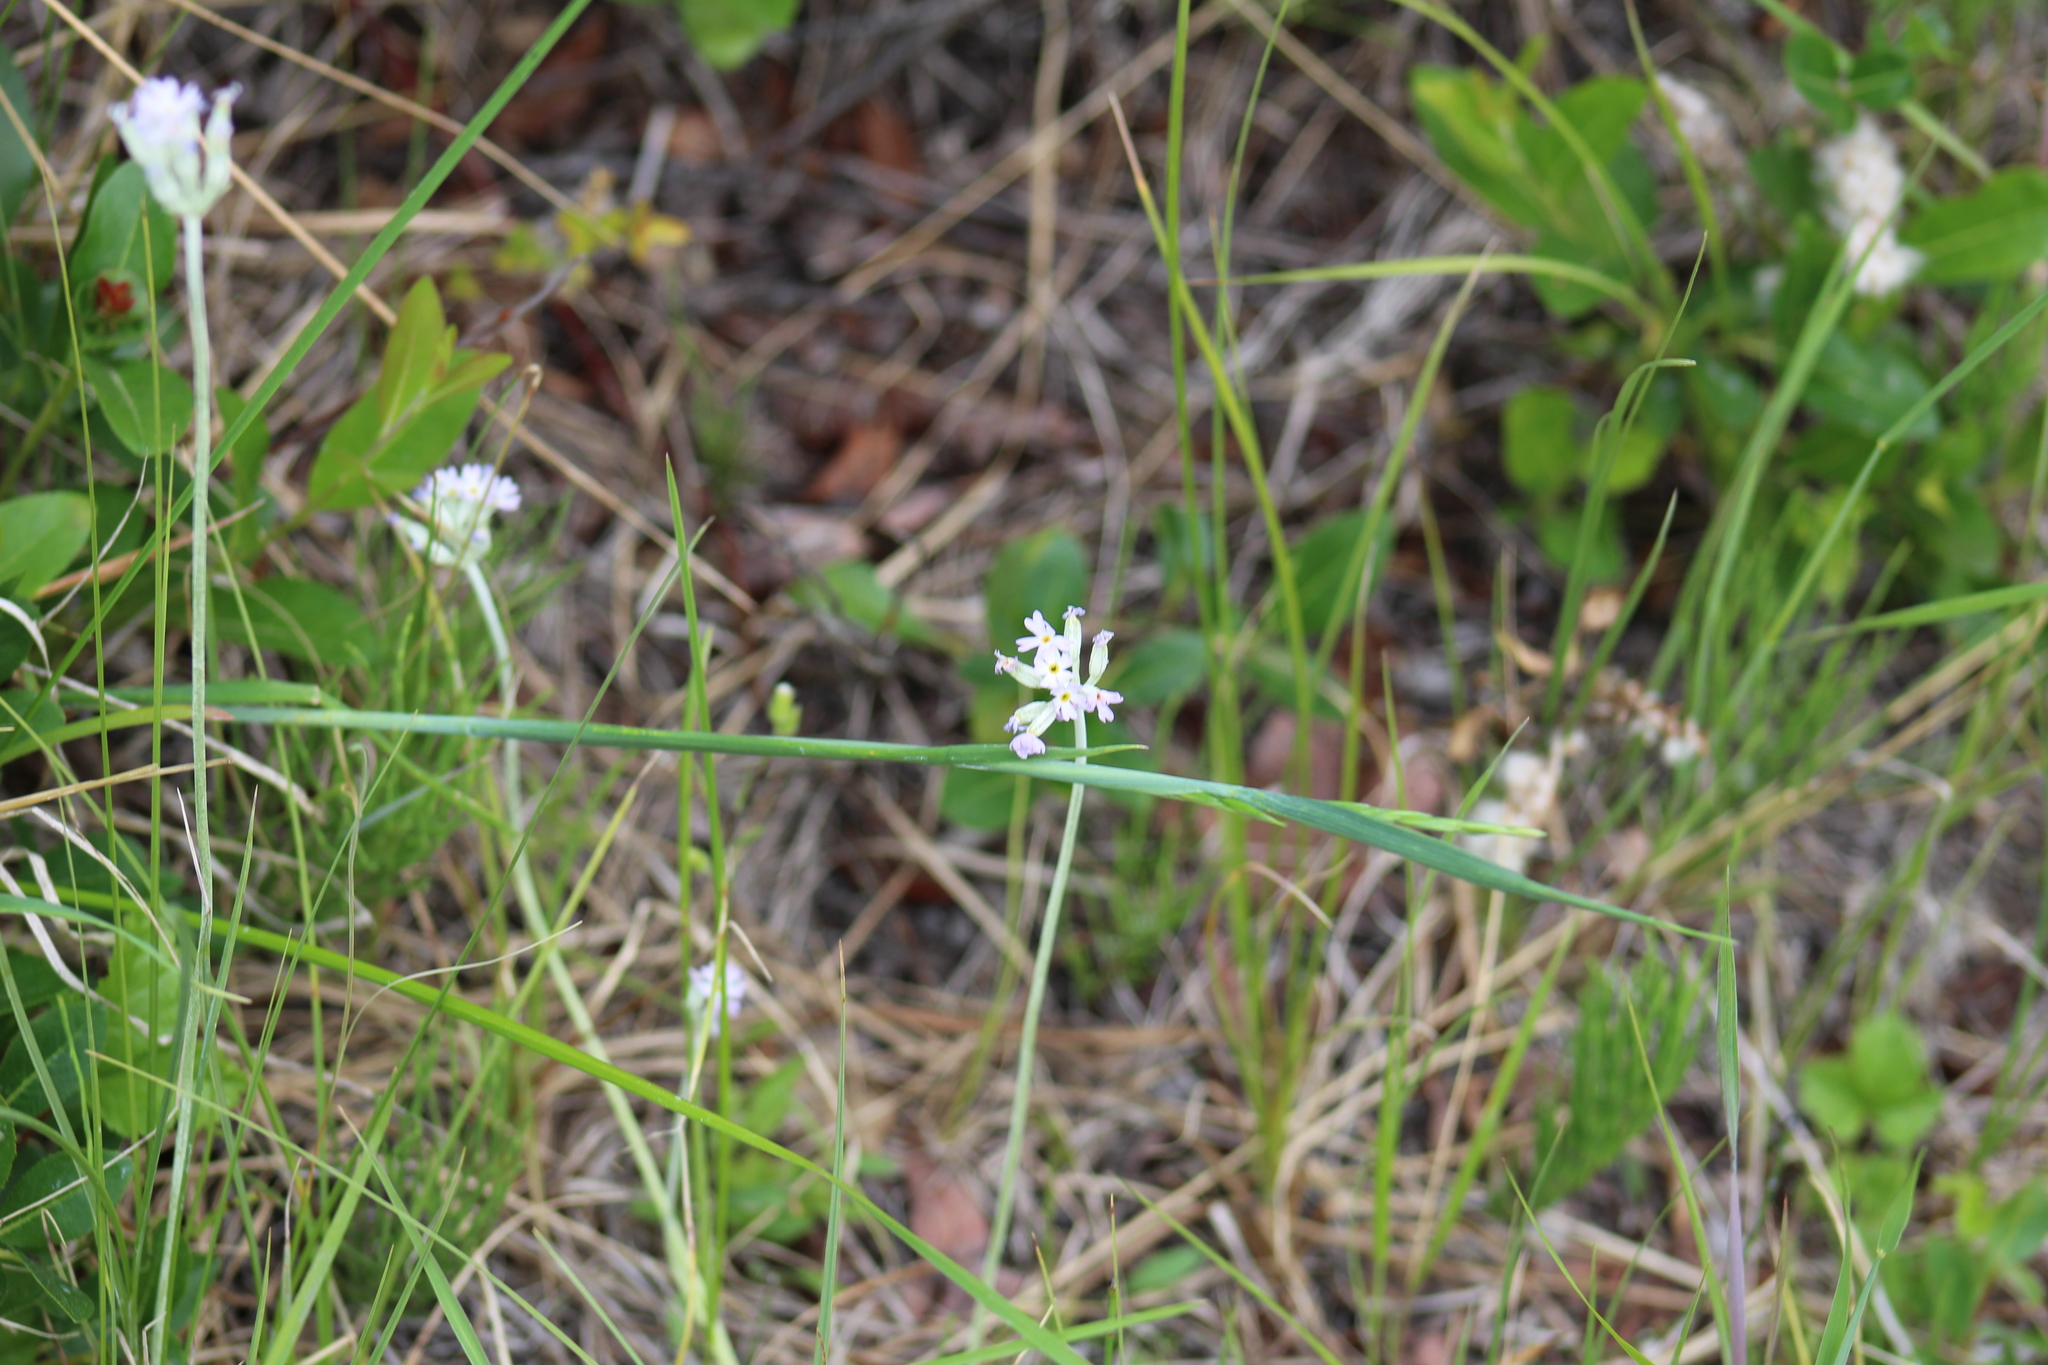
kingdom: Plantae
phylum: Tracheophyta
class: Magnoliopsida
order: Ericales
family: Primulaceae
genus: Primula
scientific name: Primula incana
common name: Hoary primrose
